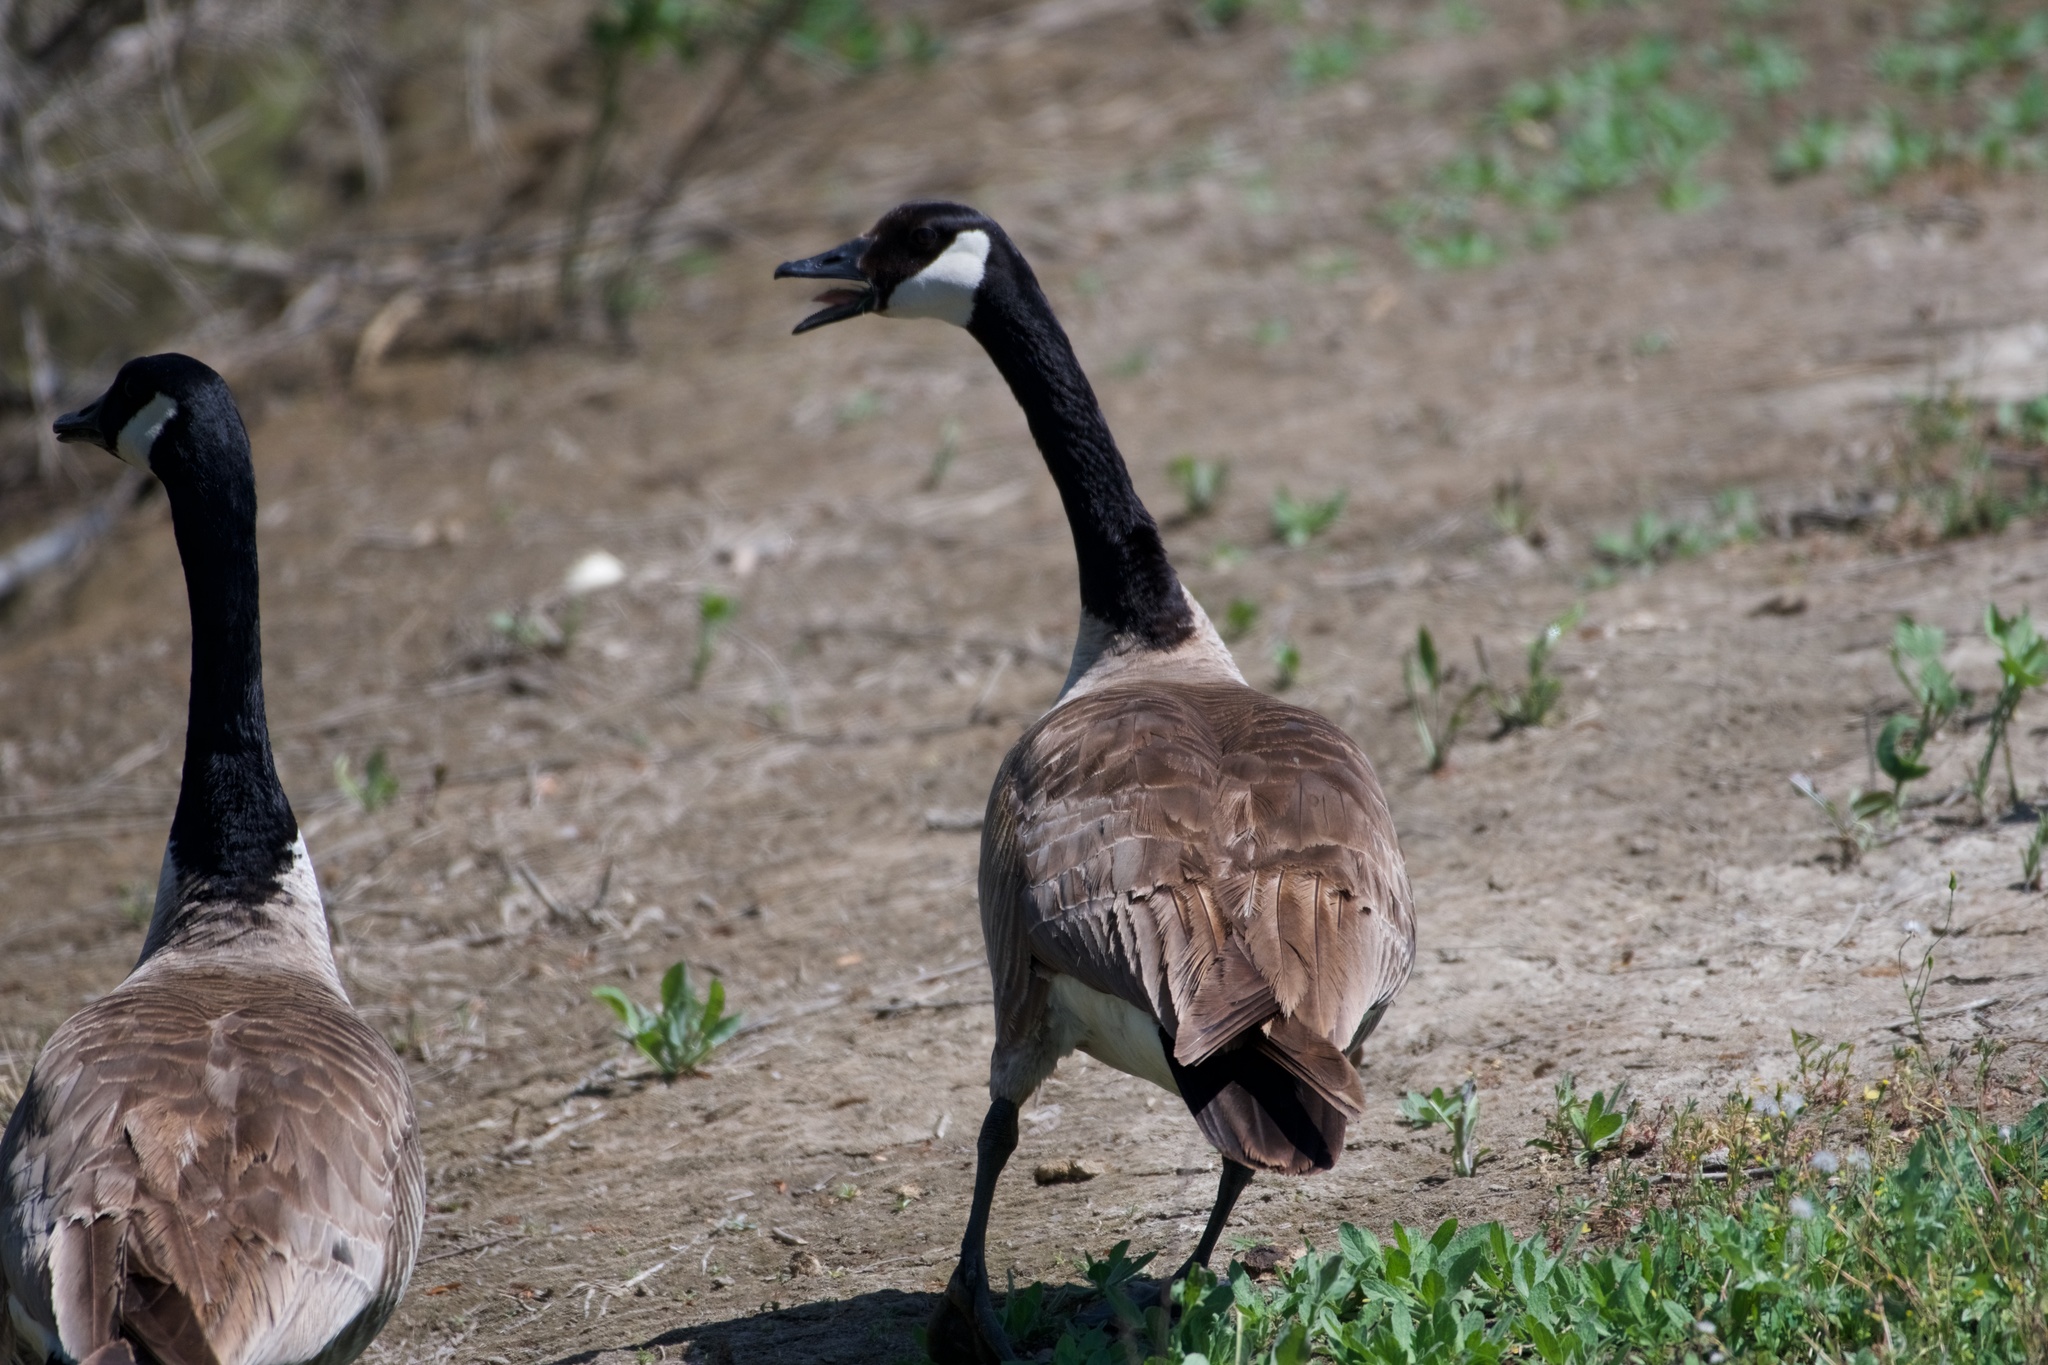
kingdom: Animalia
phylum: Chordata
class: Aves
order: Anseriformes
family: Anatidae
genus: Branta
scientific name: Branta canadensis
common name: Canada goose
